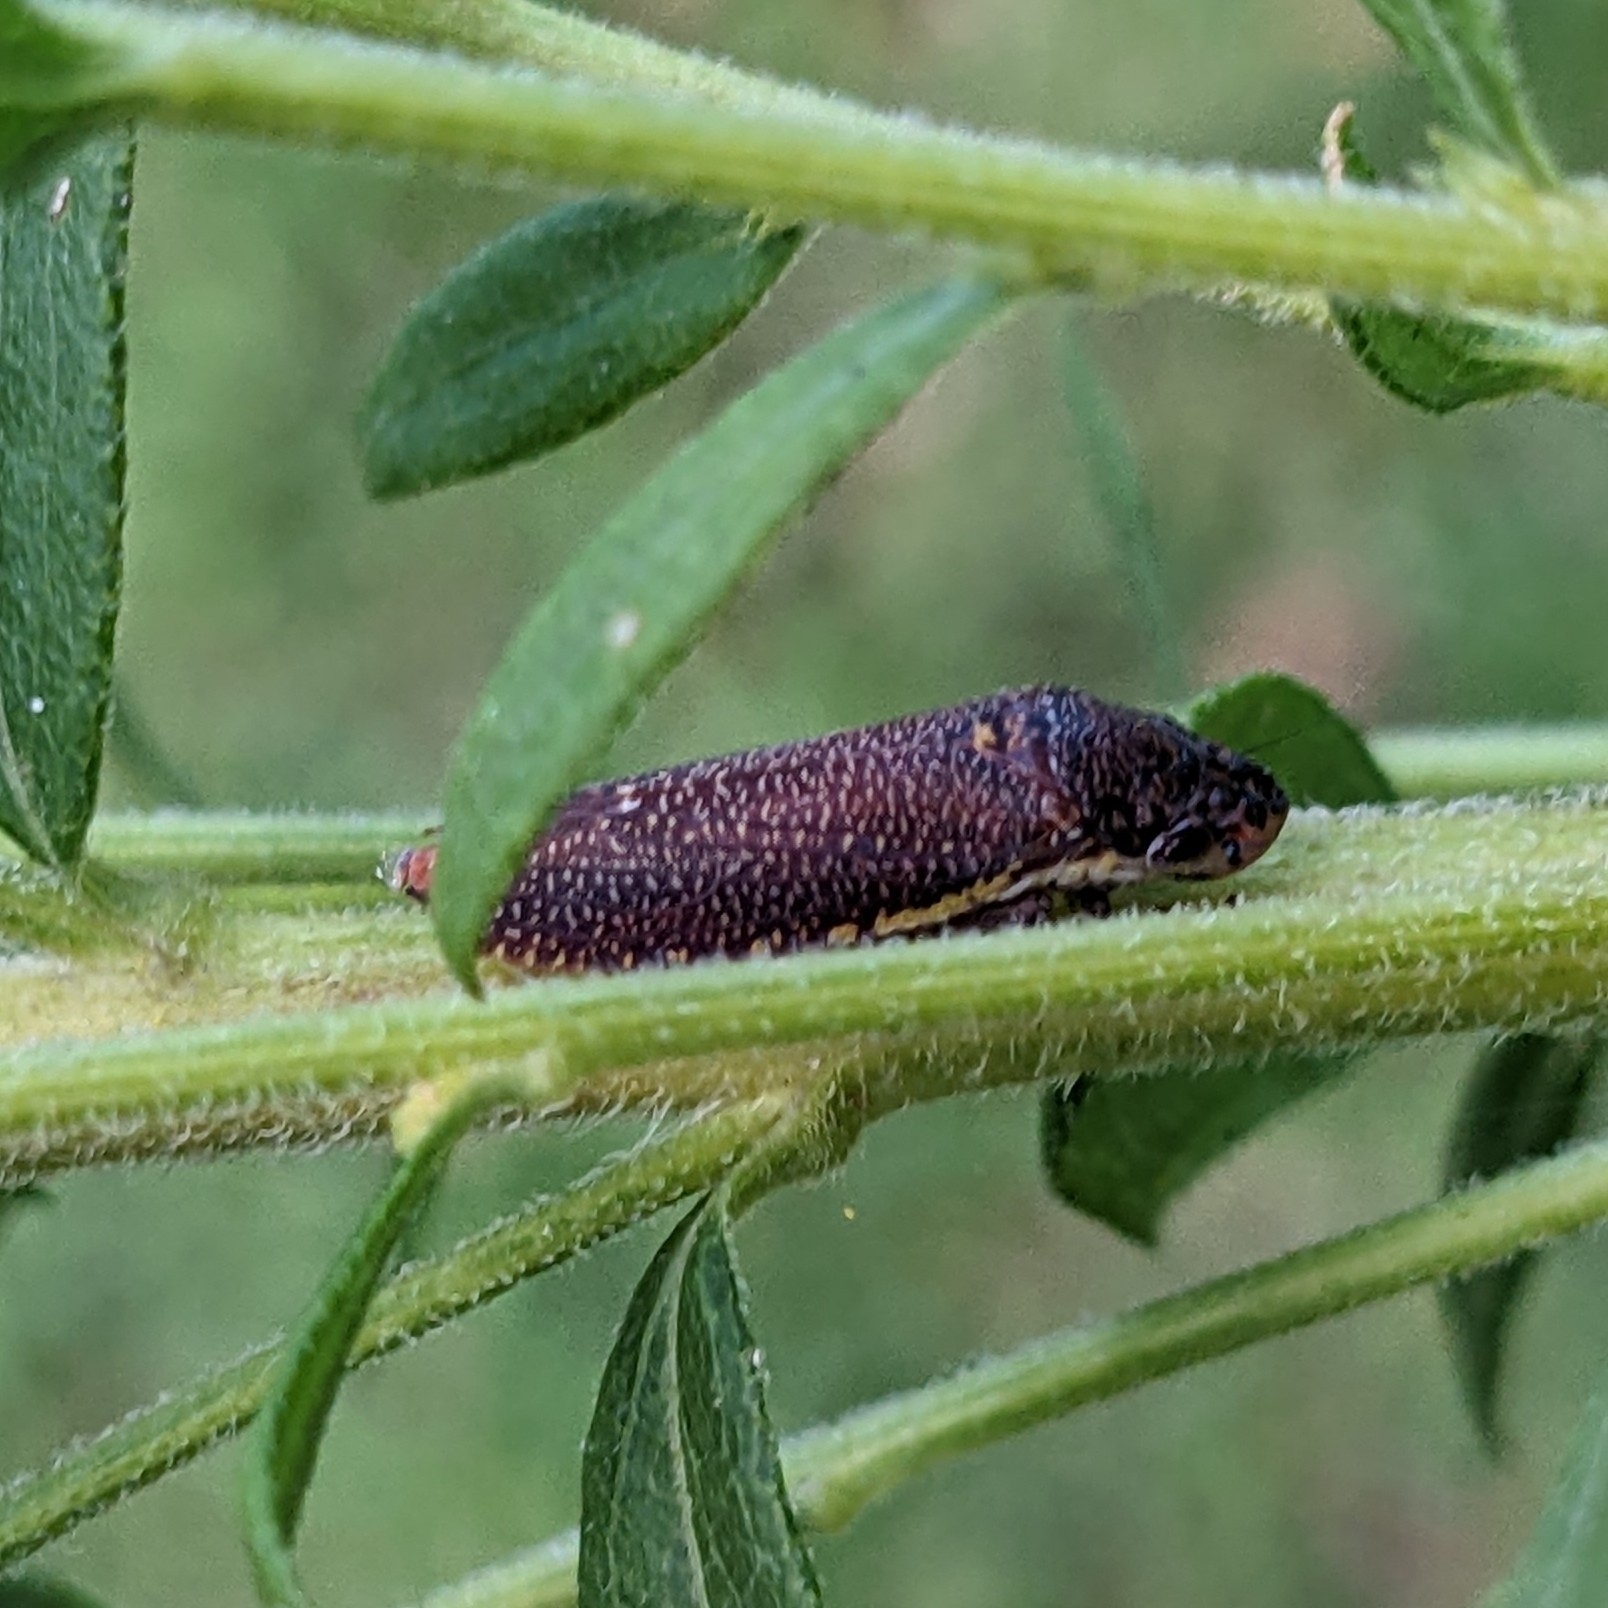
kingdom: Animalia
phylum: Arthropoda
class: Insecta
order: Hemiptera
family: Cicadellidae
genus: Paraulacizes
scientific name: Paraulacizes irrorata
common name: Speckled sharpshooter
